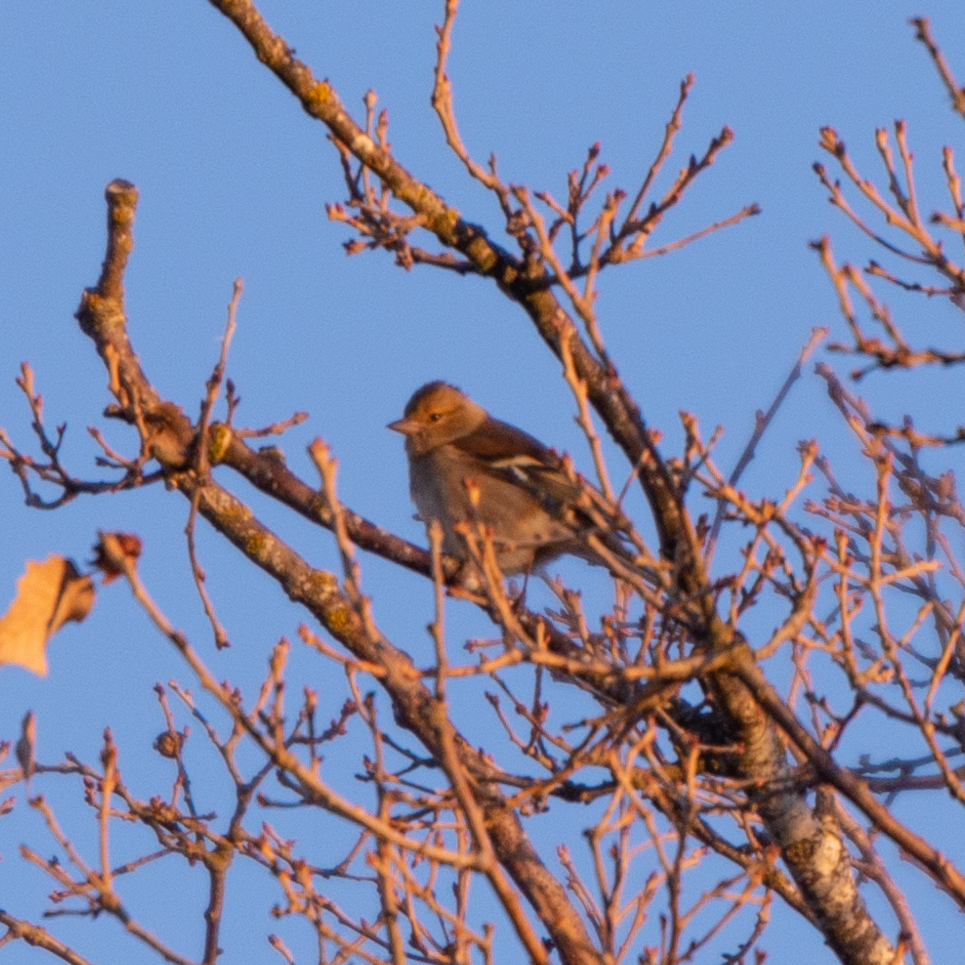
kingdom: Animalia
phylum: Chordata
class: Aves
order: Passeriformes
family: Fringillidae
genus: Fringilla
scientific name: Fringilla coelebs
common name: Common chaffinch
